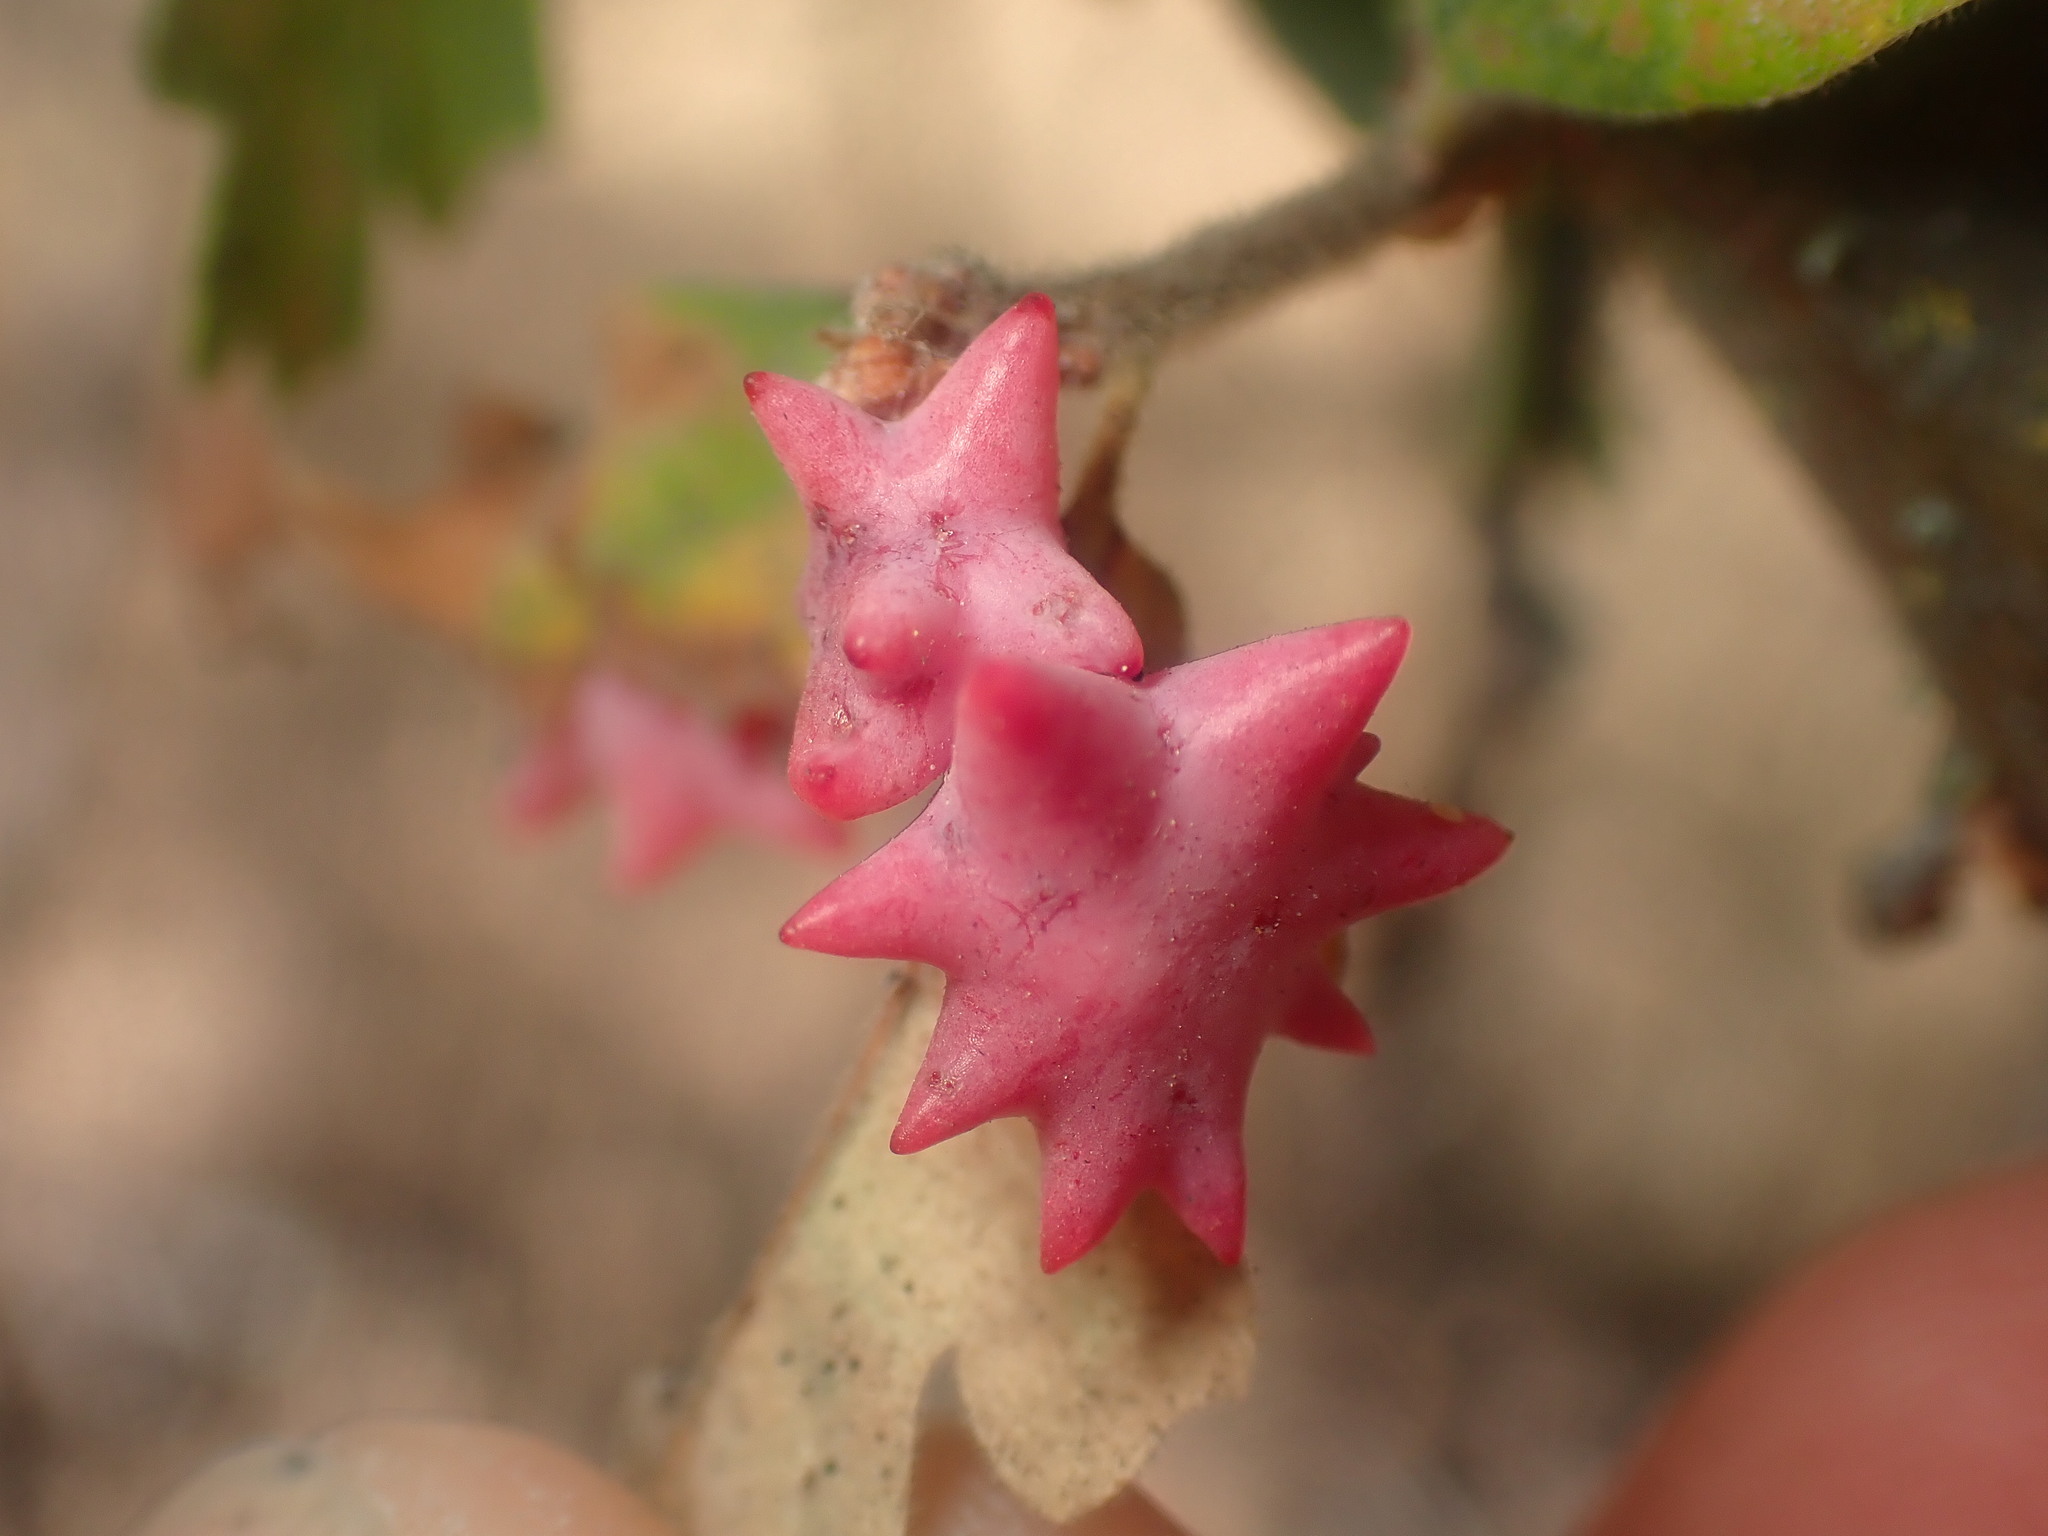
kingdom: Animalia
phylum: Arthropoda
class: Insecta
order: Hymenoptera
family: Cynipidae
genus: Cynips
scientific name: Cynips douglasi
